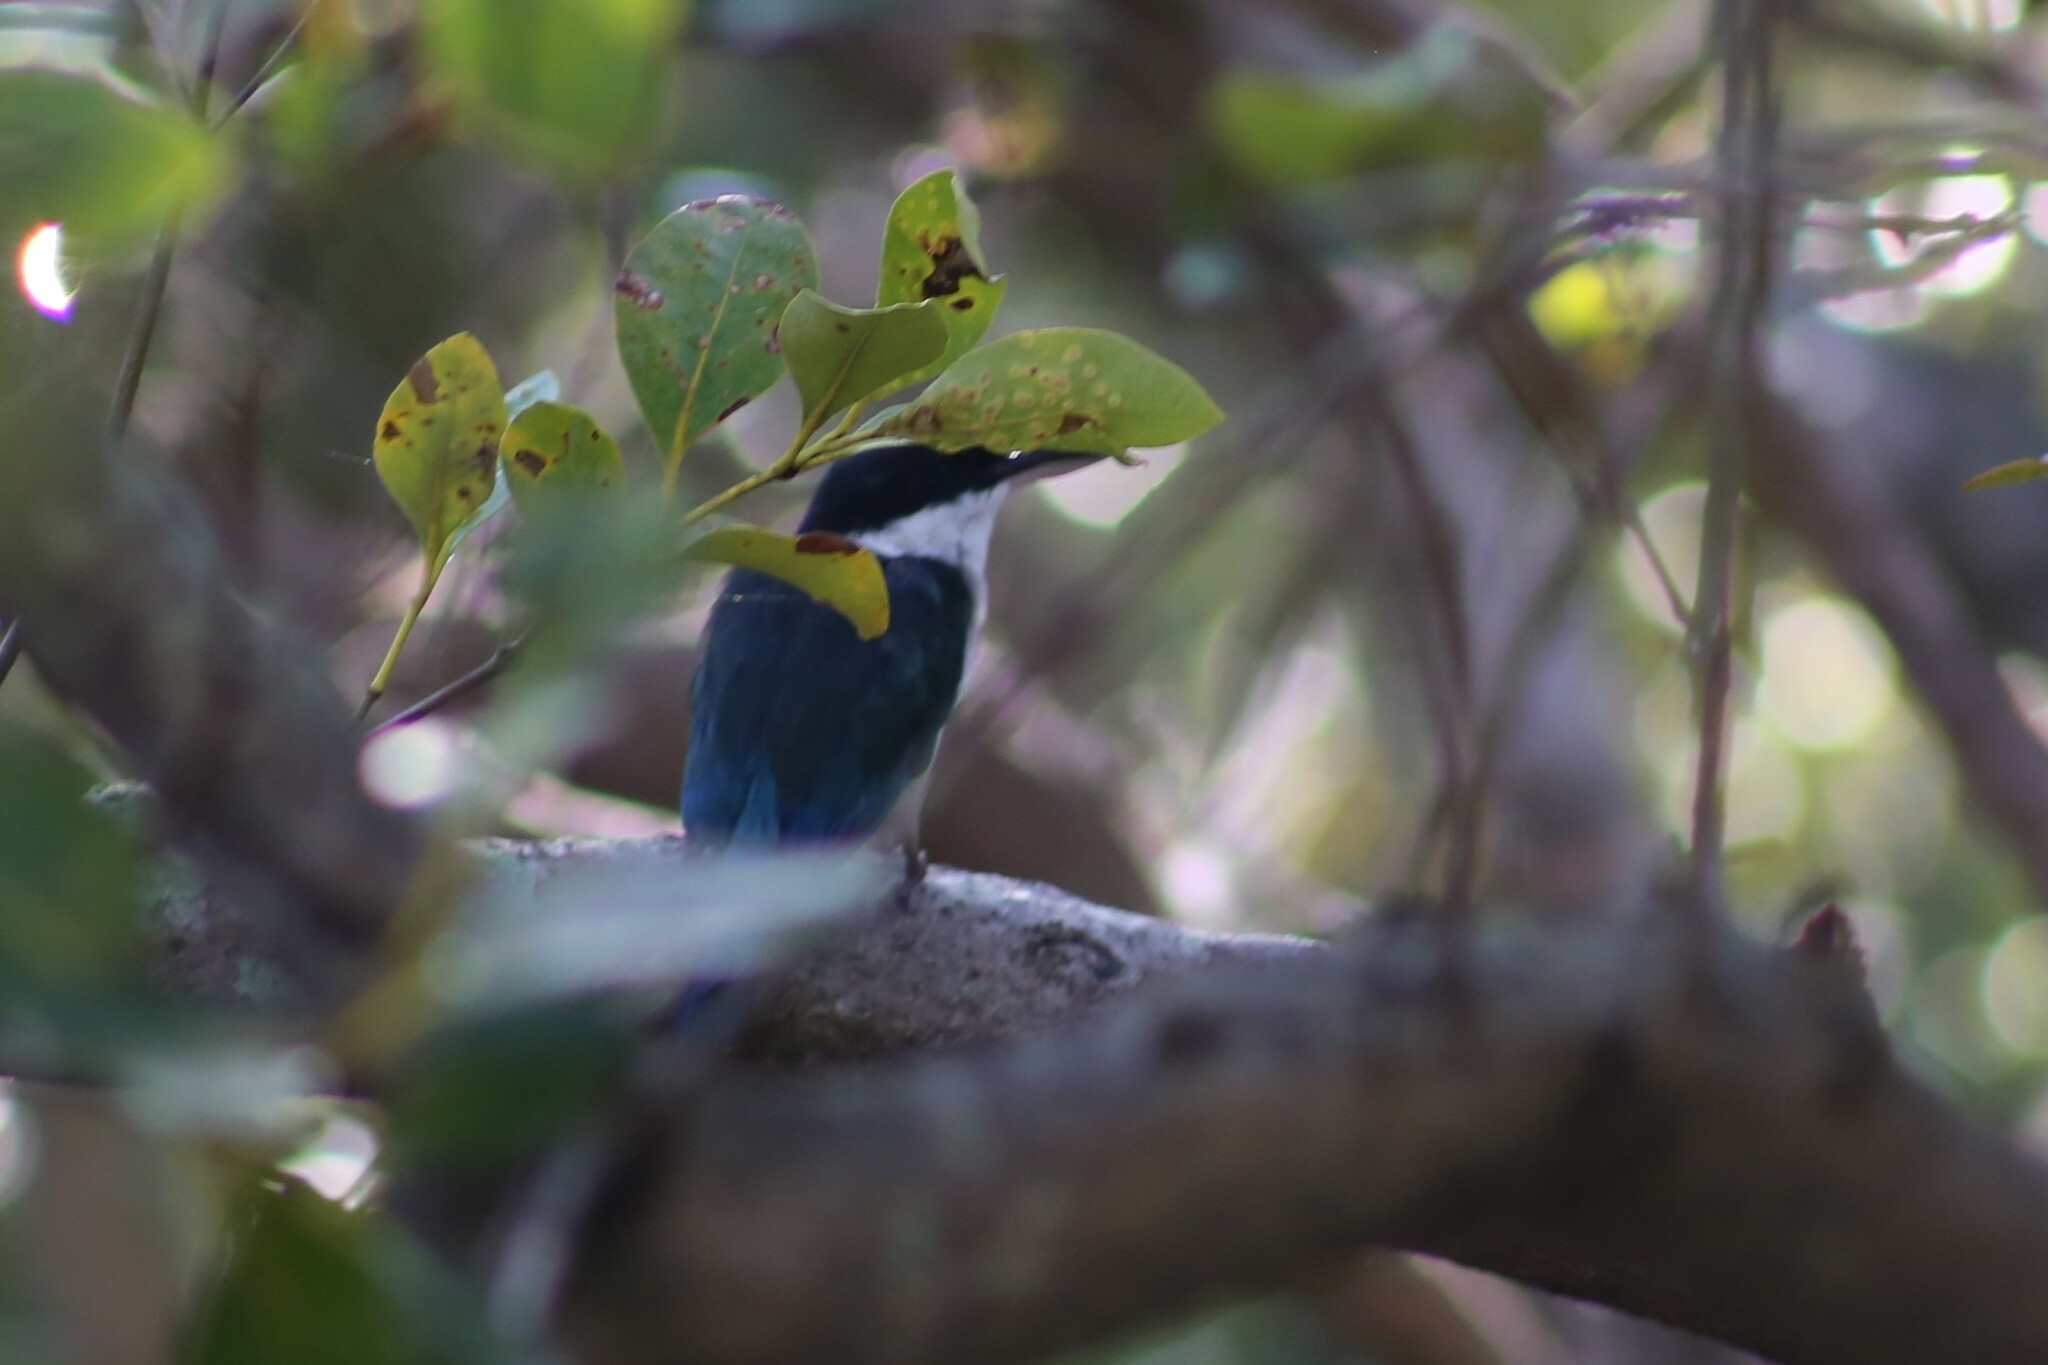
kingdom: Animalia
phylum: Chordata
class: Aves
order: Coraciiformes
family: Alcedinidae
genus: Todiramphus
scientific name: Todiramphus sordidus
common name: Torresian kingfisher
